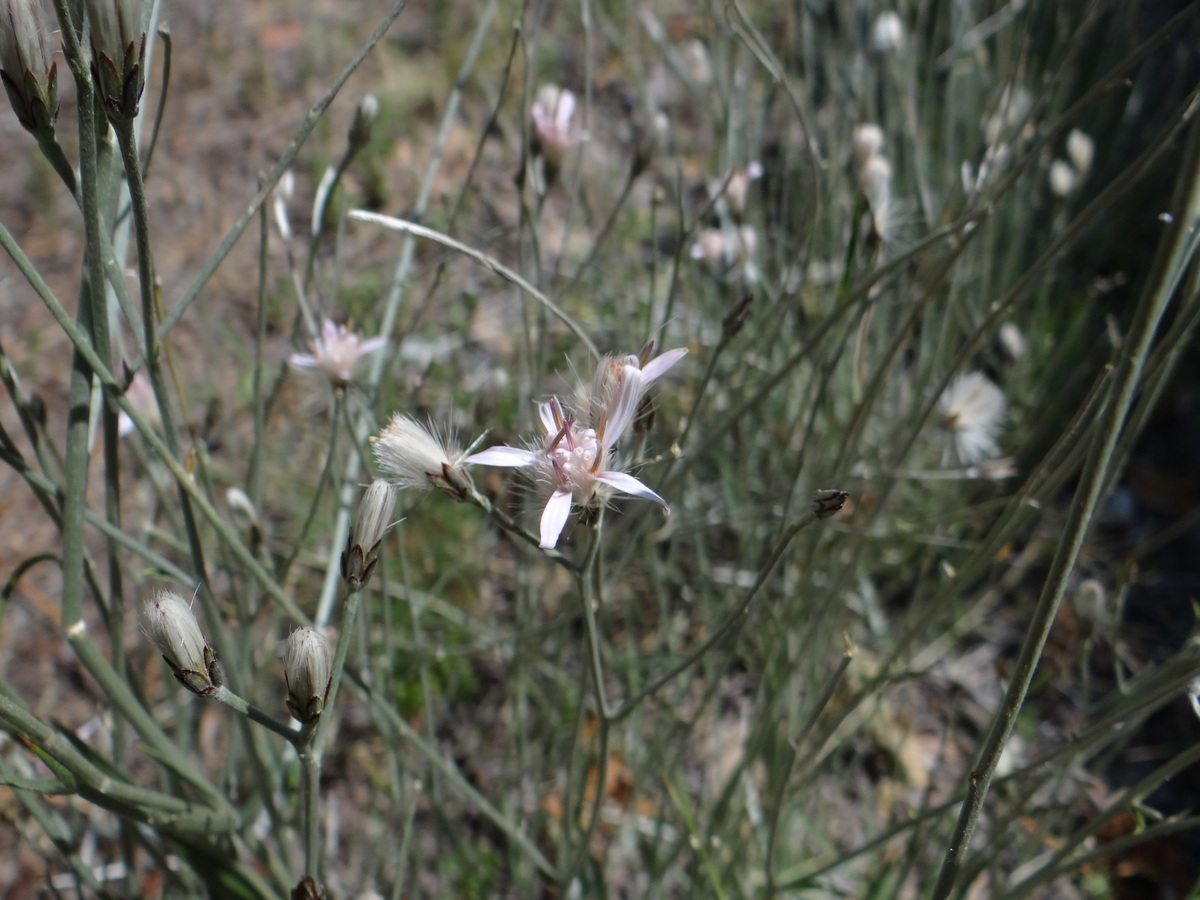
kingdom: Plantae
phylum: Tracheophyta
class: Magnoliopsida
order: Asterales
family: Asteraceae
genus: Hyalis
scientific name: Hyalis argentea
